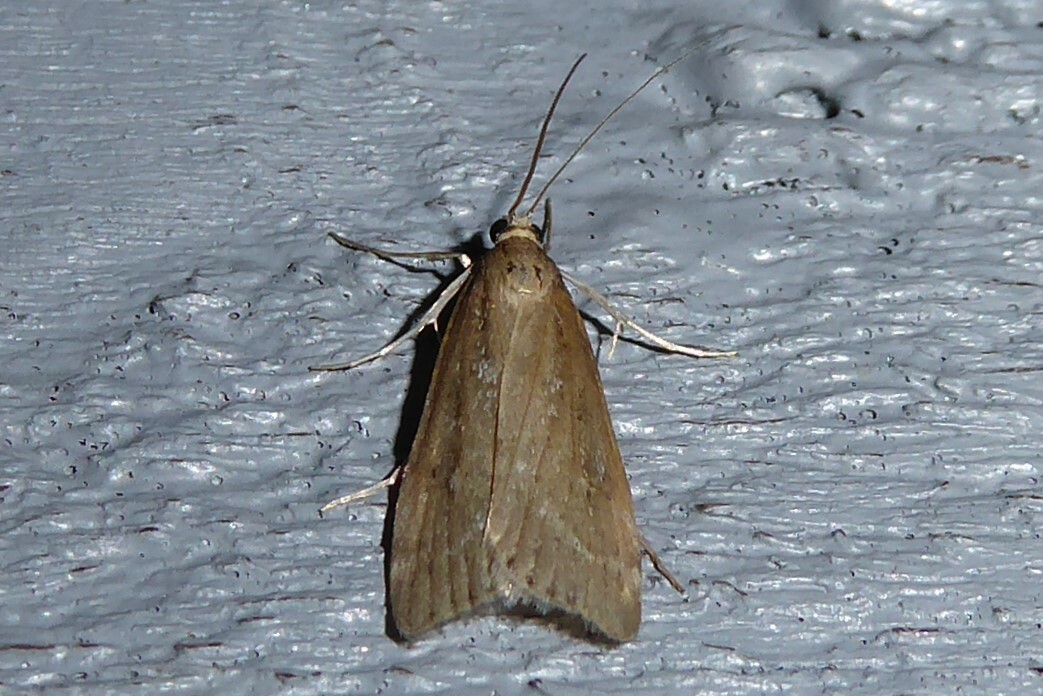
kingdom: Animalia
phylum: Arthropoda
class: Insecta
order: Lepidoptera
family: Crambidae
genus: Eudonia
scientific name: Eudonia octophora
